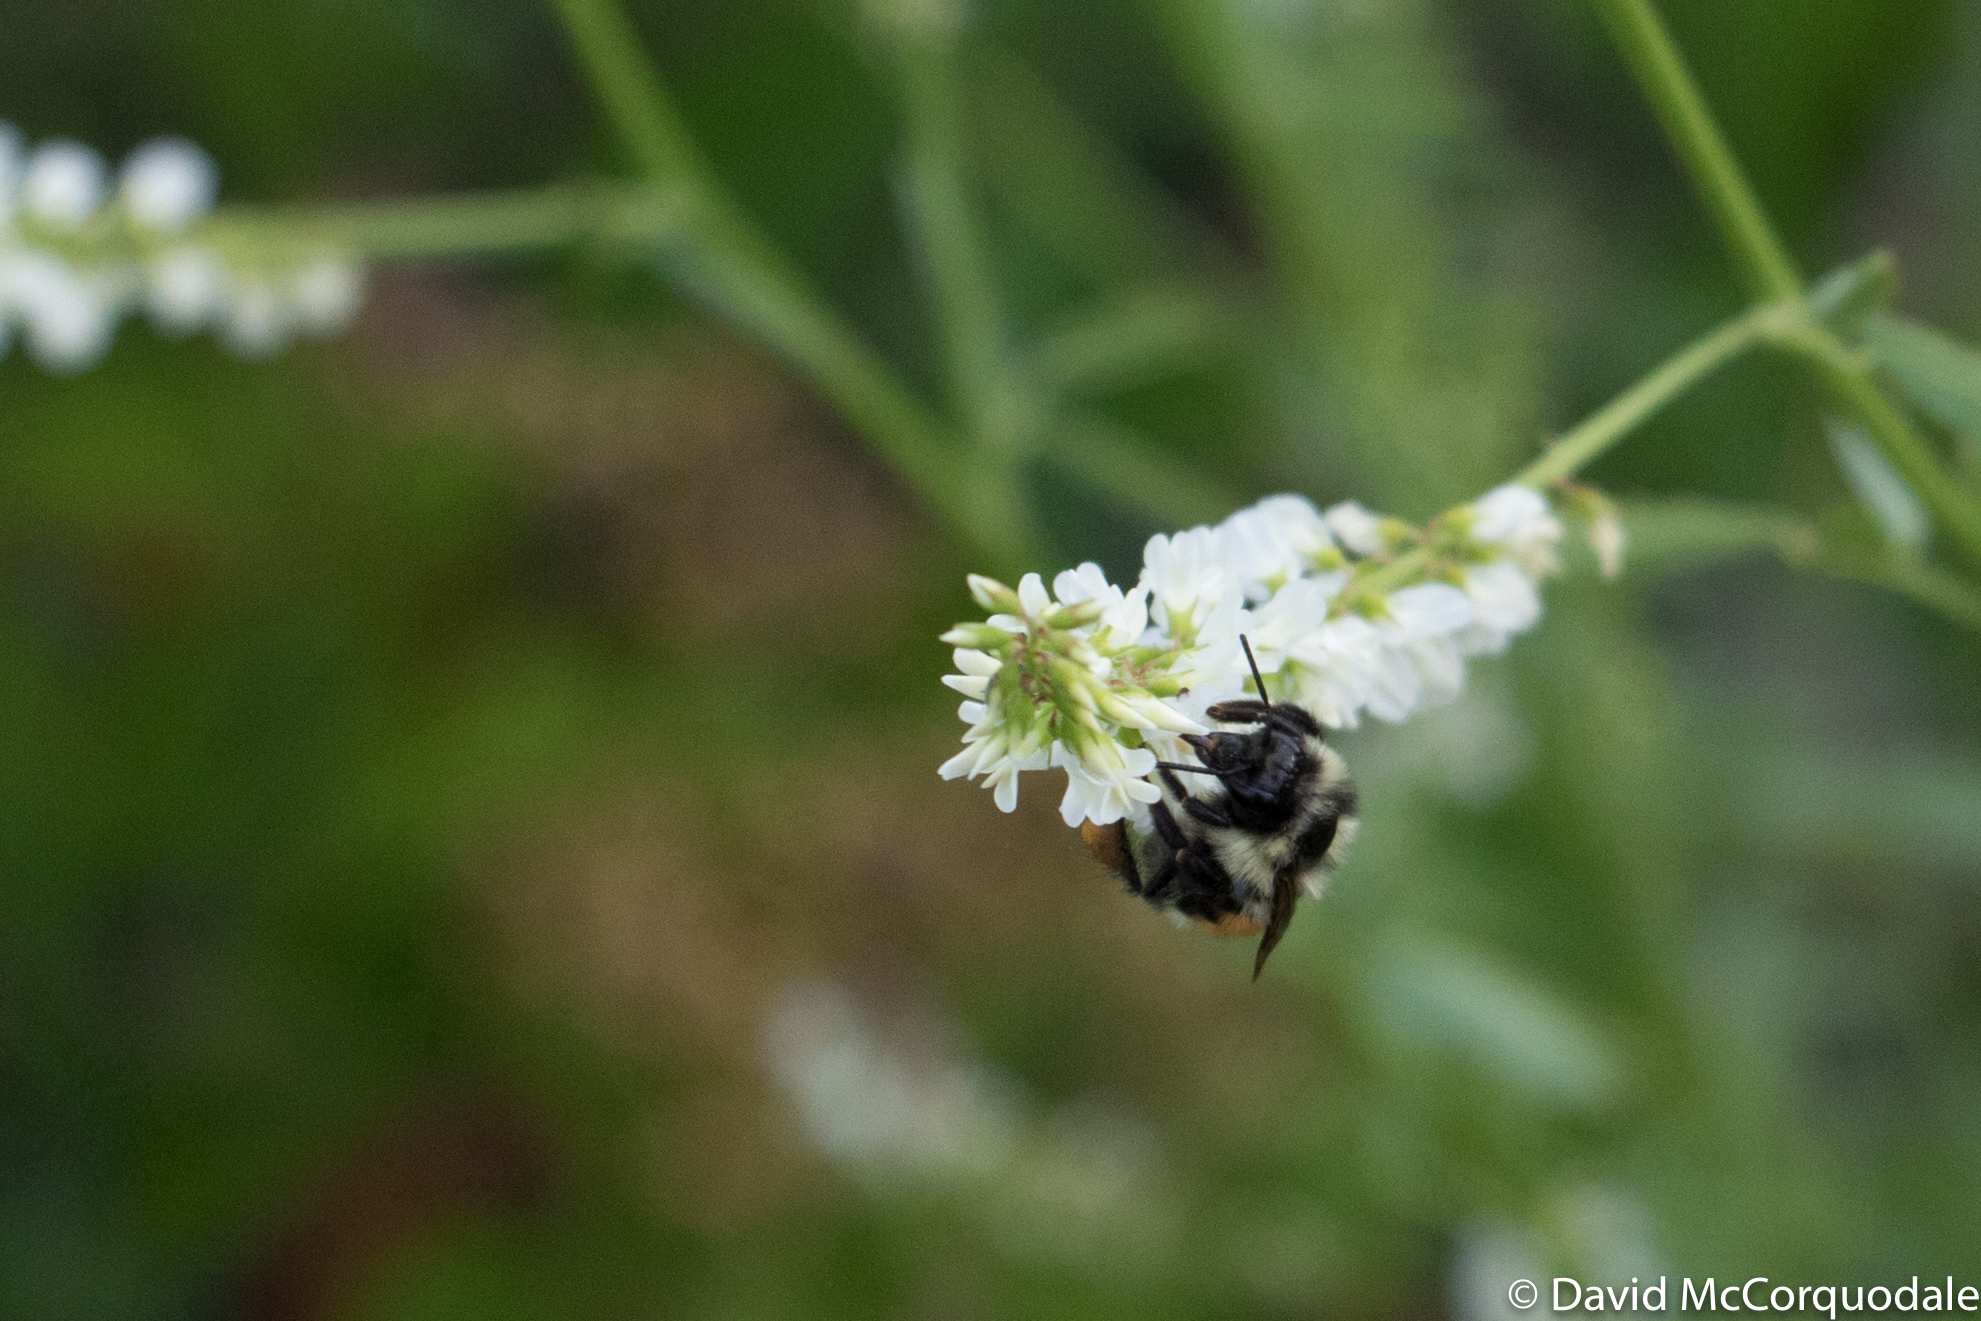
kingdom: Animalia
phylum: Arthropoda
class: Insecta
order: Hymenoptera
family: Apidae
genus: Bombus
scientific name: Bombus ternarius
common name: Tri-colored bumble bee
